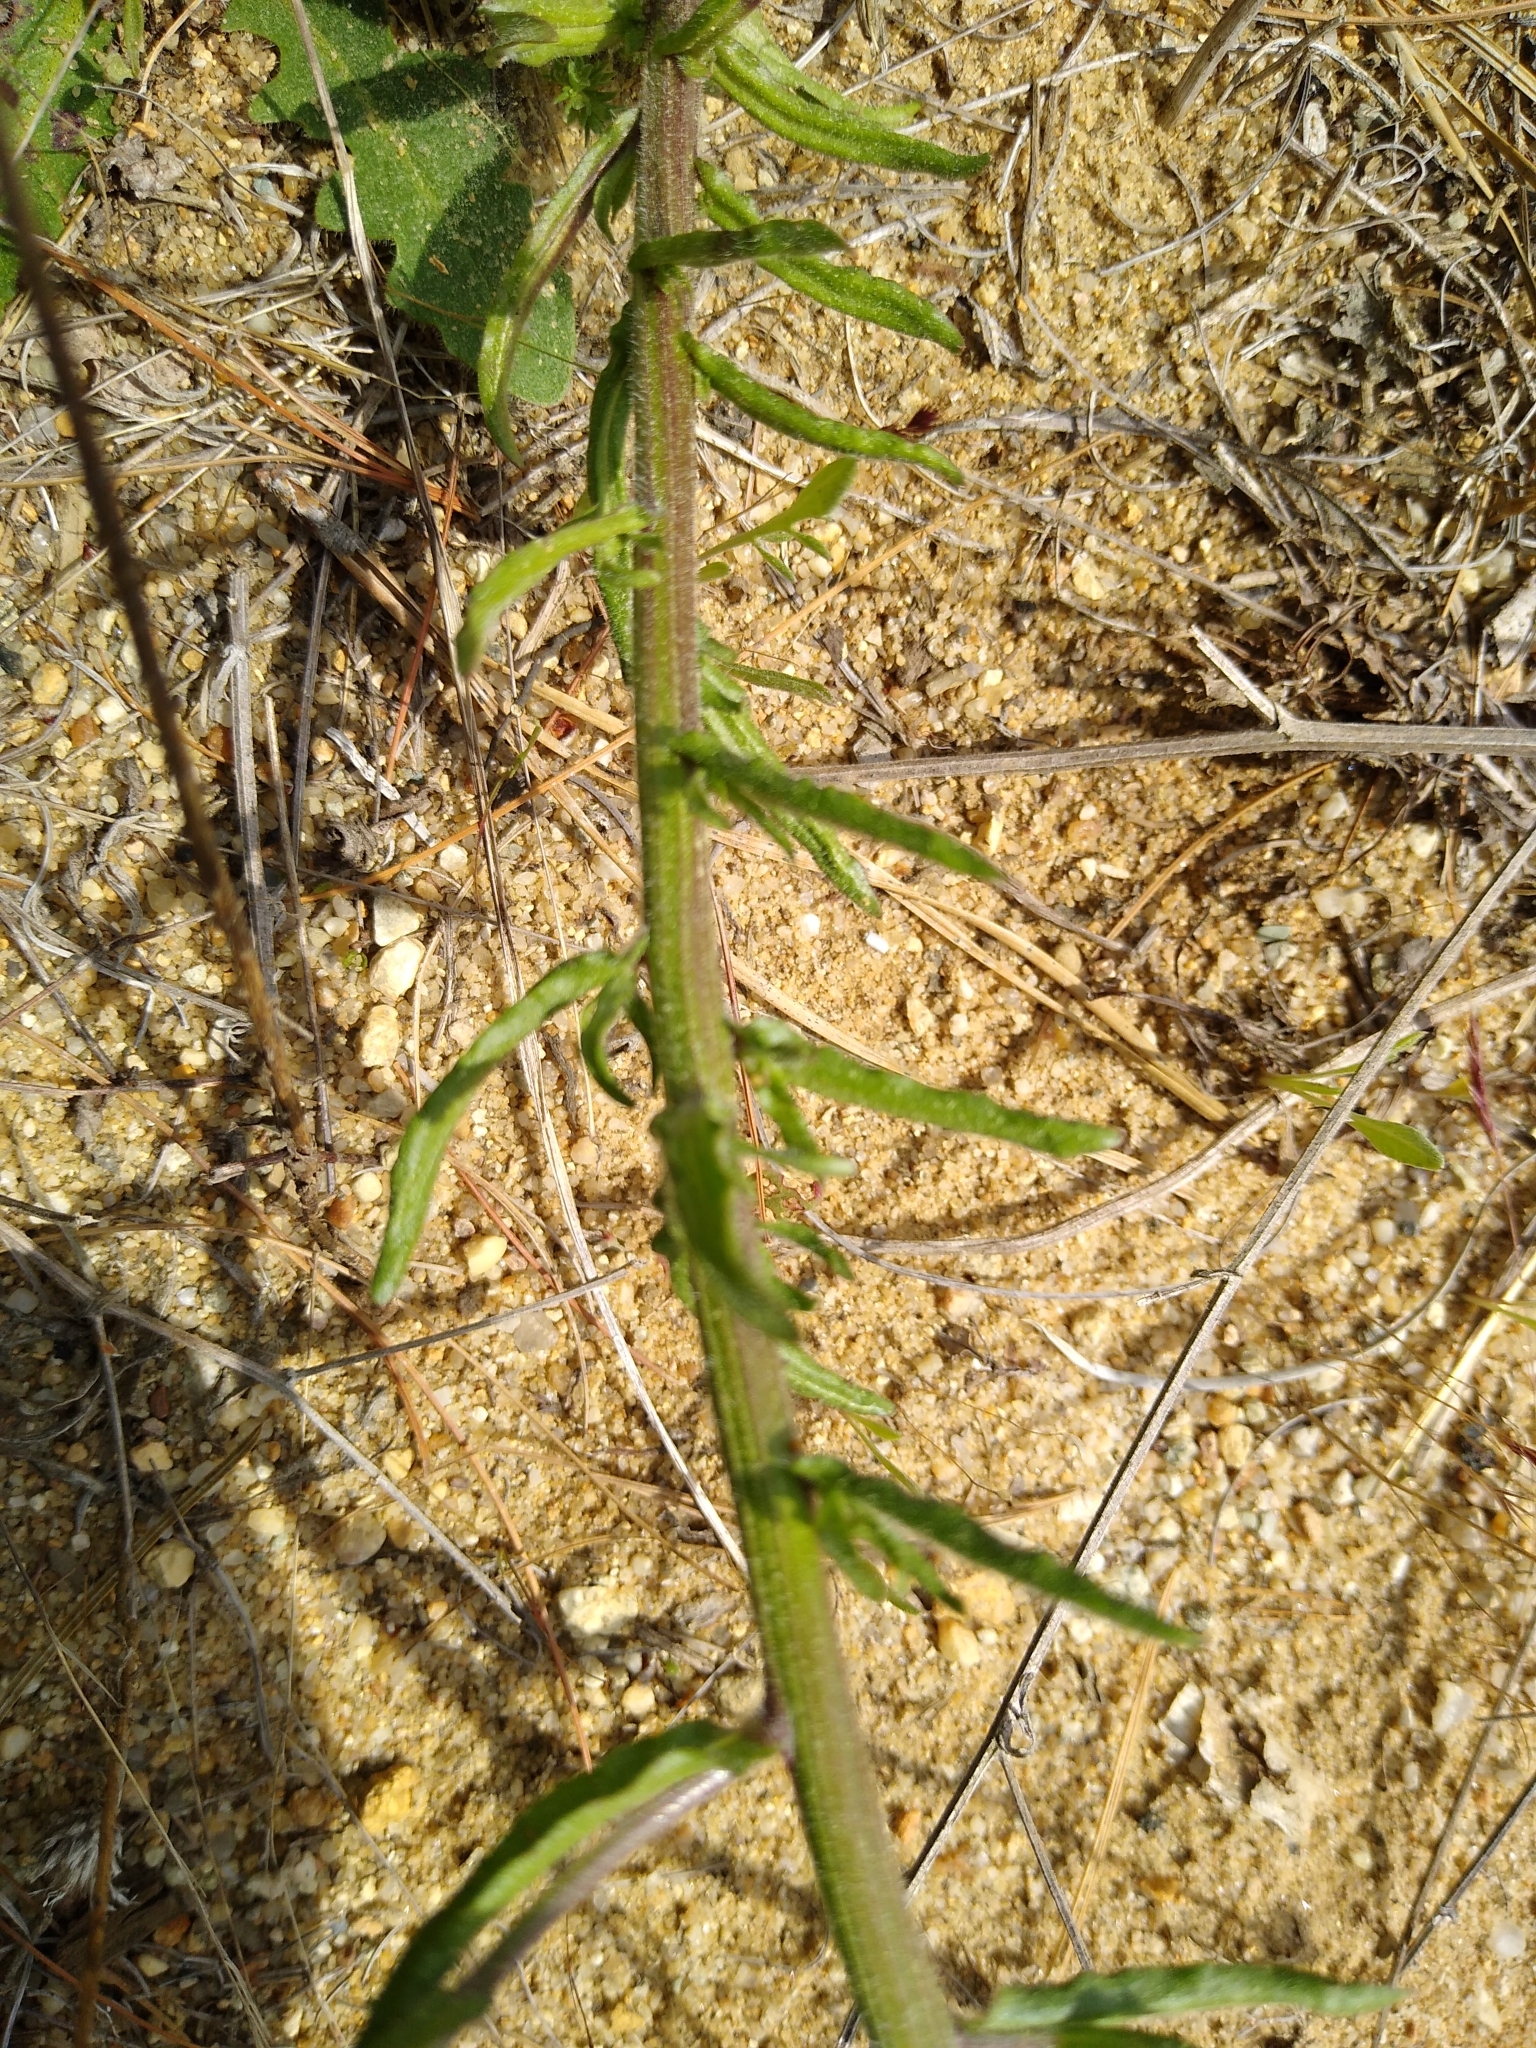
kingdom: Plantae
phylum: Tracheophyta
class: Magnoliopsida
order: Asterales
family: Campanulaceae
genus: Jasione
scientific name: Jasione montana
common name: Sheep's-bit
